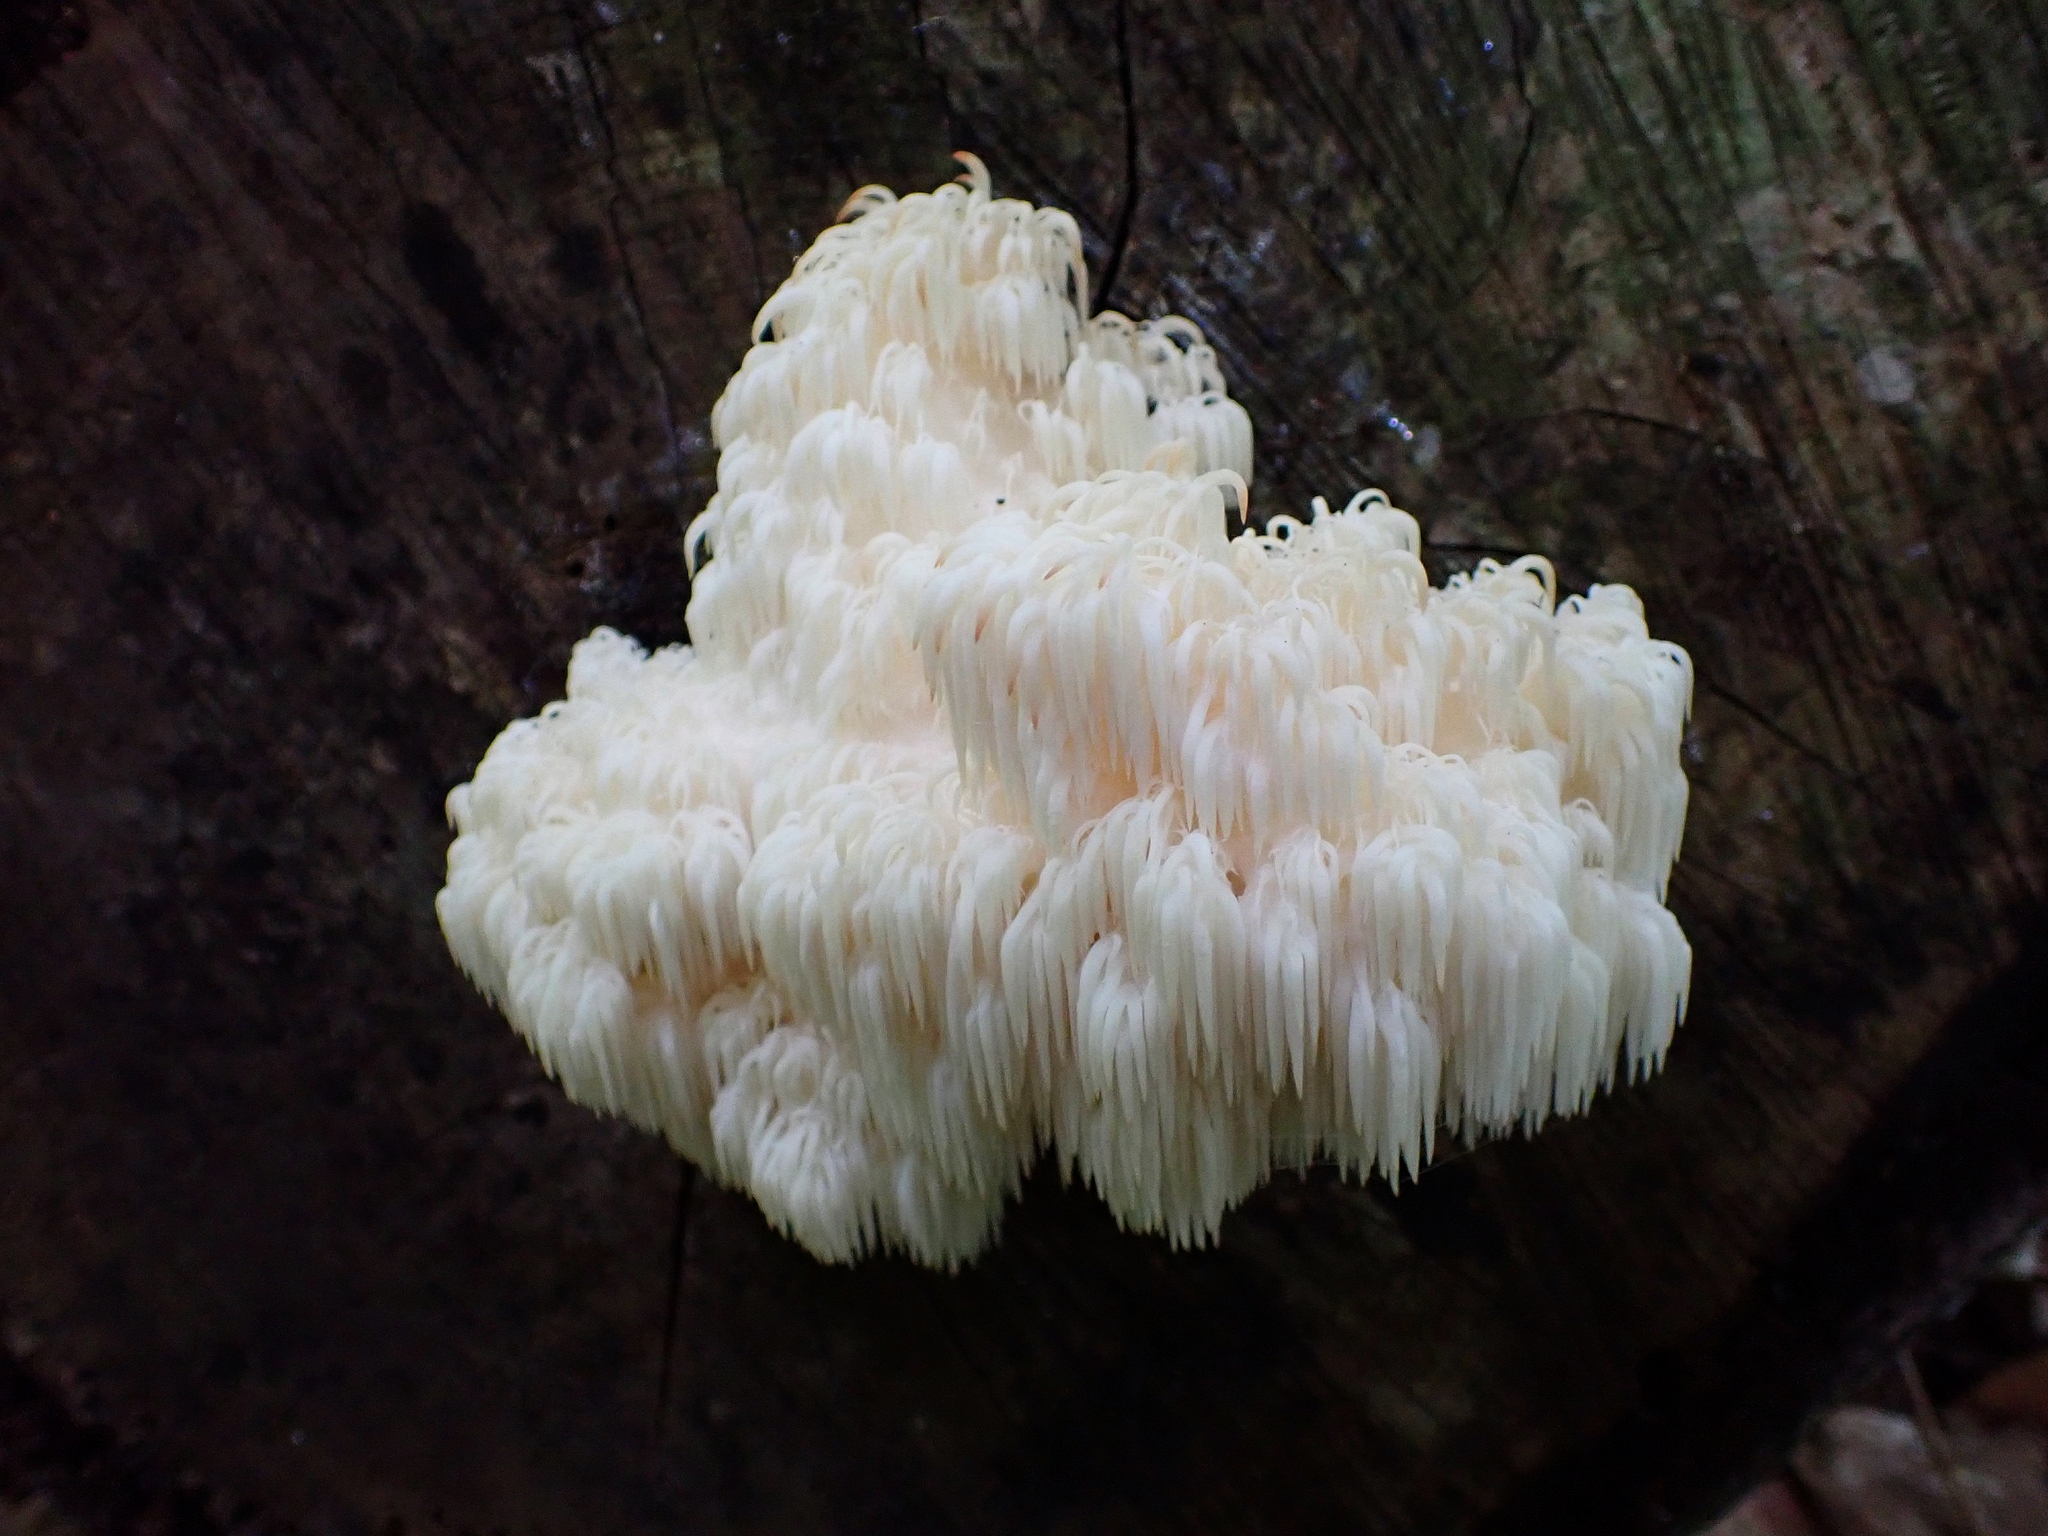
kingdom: Fungi
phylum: Basidiomycota
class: Agaricomycetes
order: Russulales
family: Hericiaceae
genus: Hericium
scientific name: Hericium americanum
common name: Bear's head tooth
